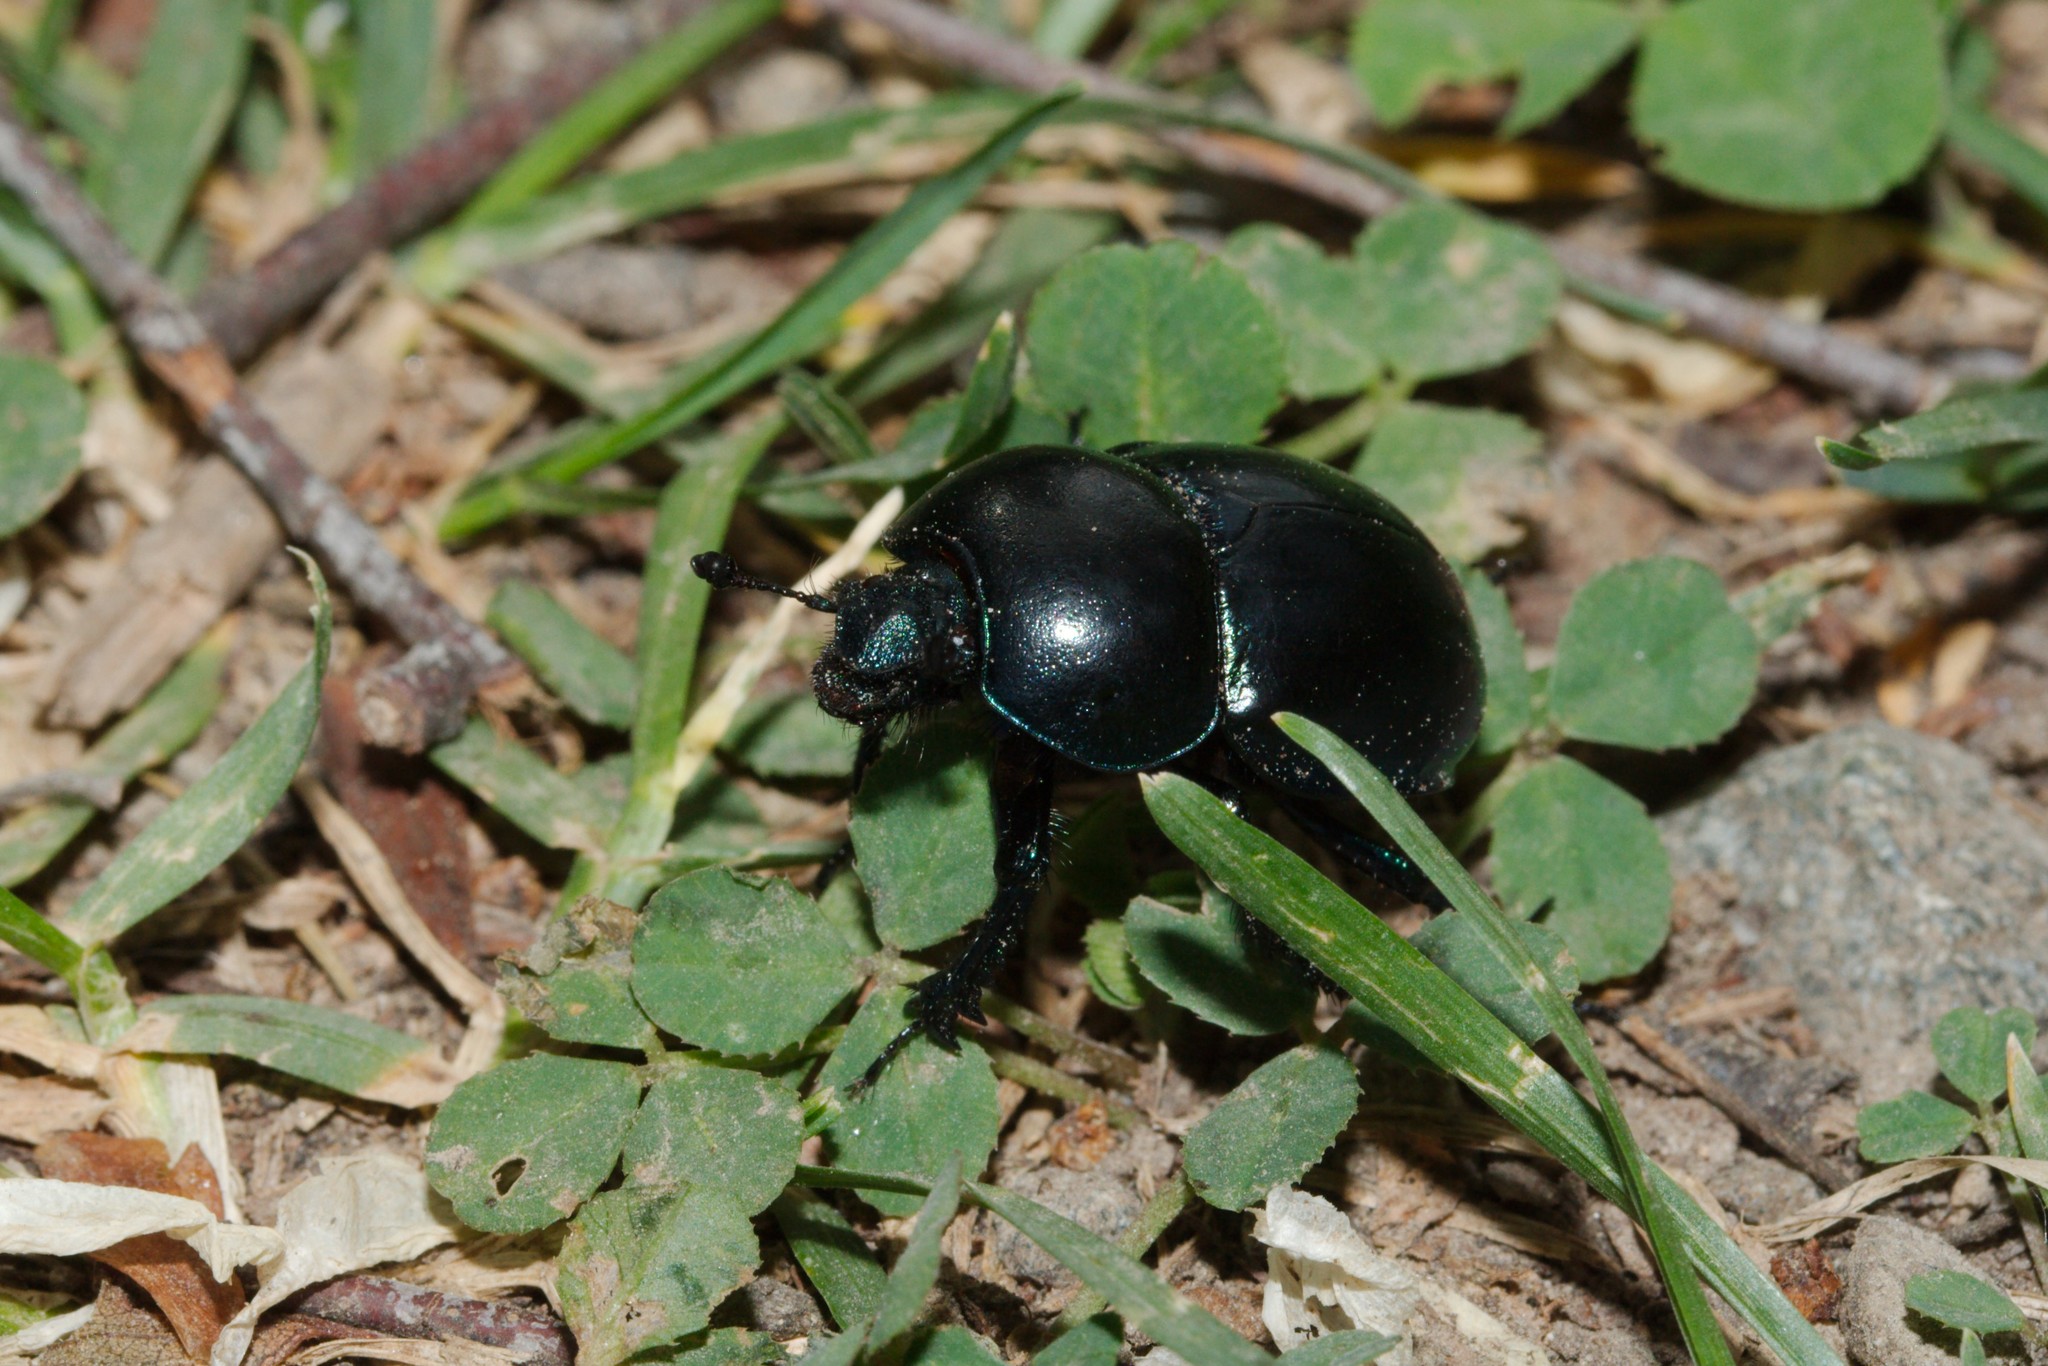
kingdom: Animalia
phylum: Arthropoda
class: Insecta
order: Coleoptera
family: Geotrupidae
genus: Trypocopris
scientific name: Trypocopris vernalis
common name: Spring dumbledor
